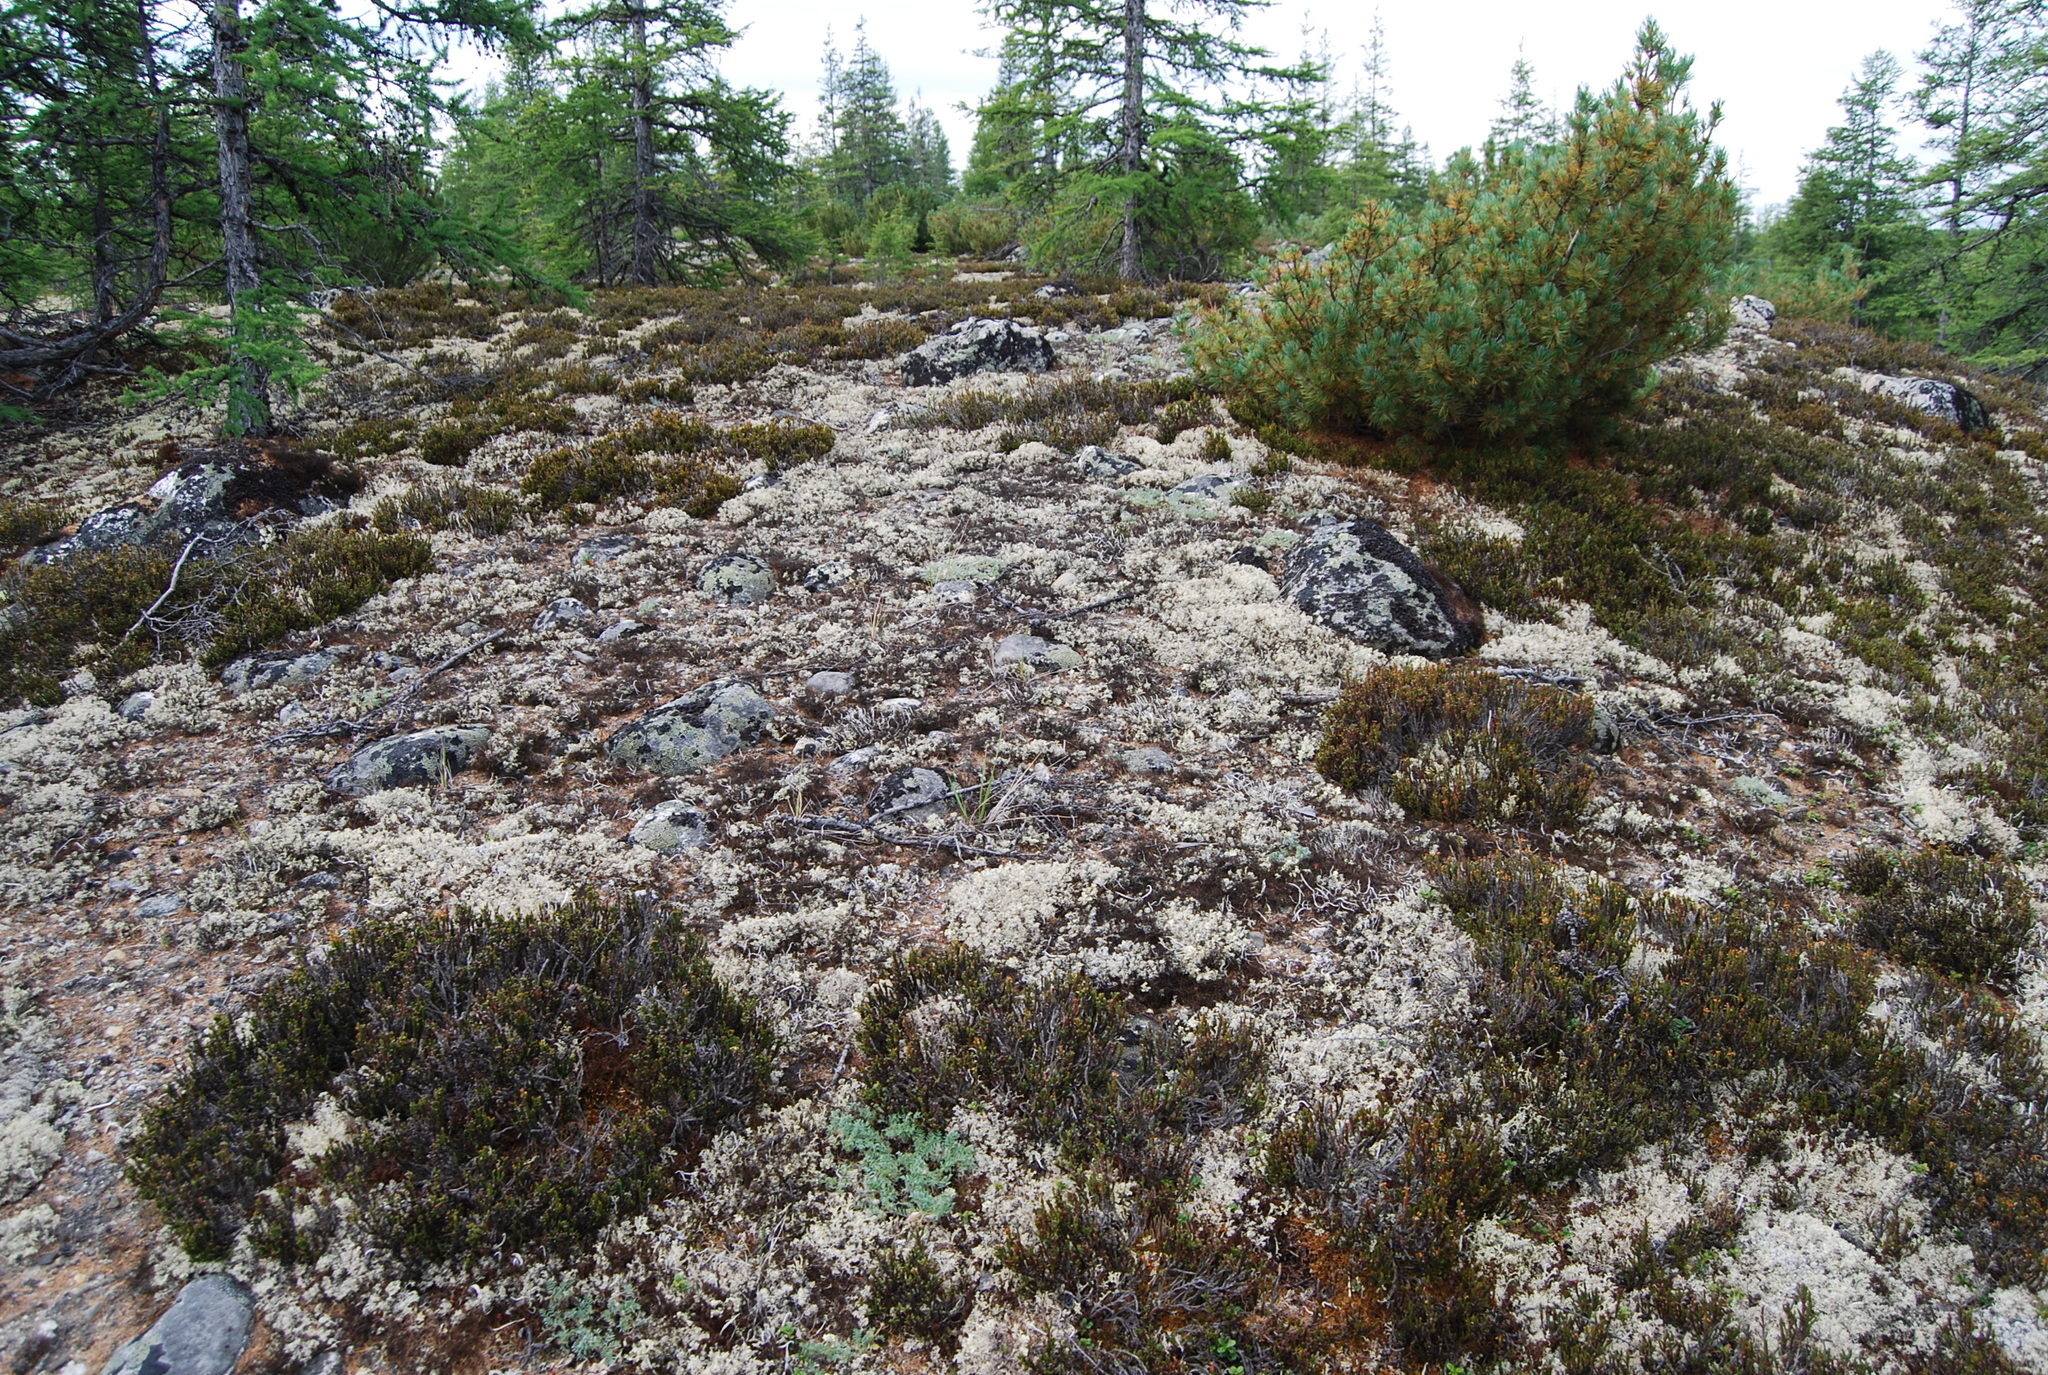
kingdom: Plantae
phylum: Tracheophyta
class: Magnoliopsida
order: Fabales
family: Fabaceae
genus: Oxytropis
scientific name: Oxytropis susumanica
